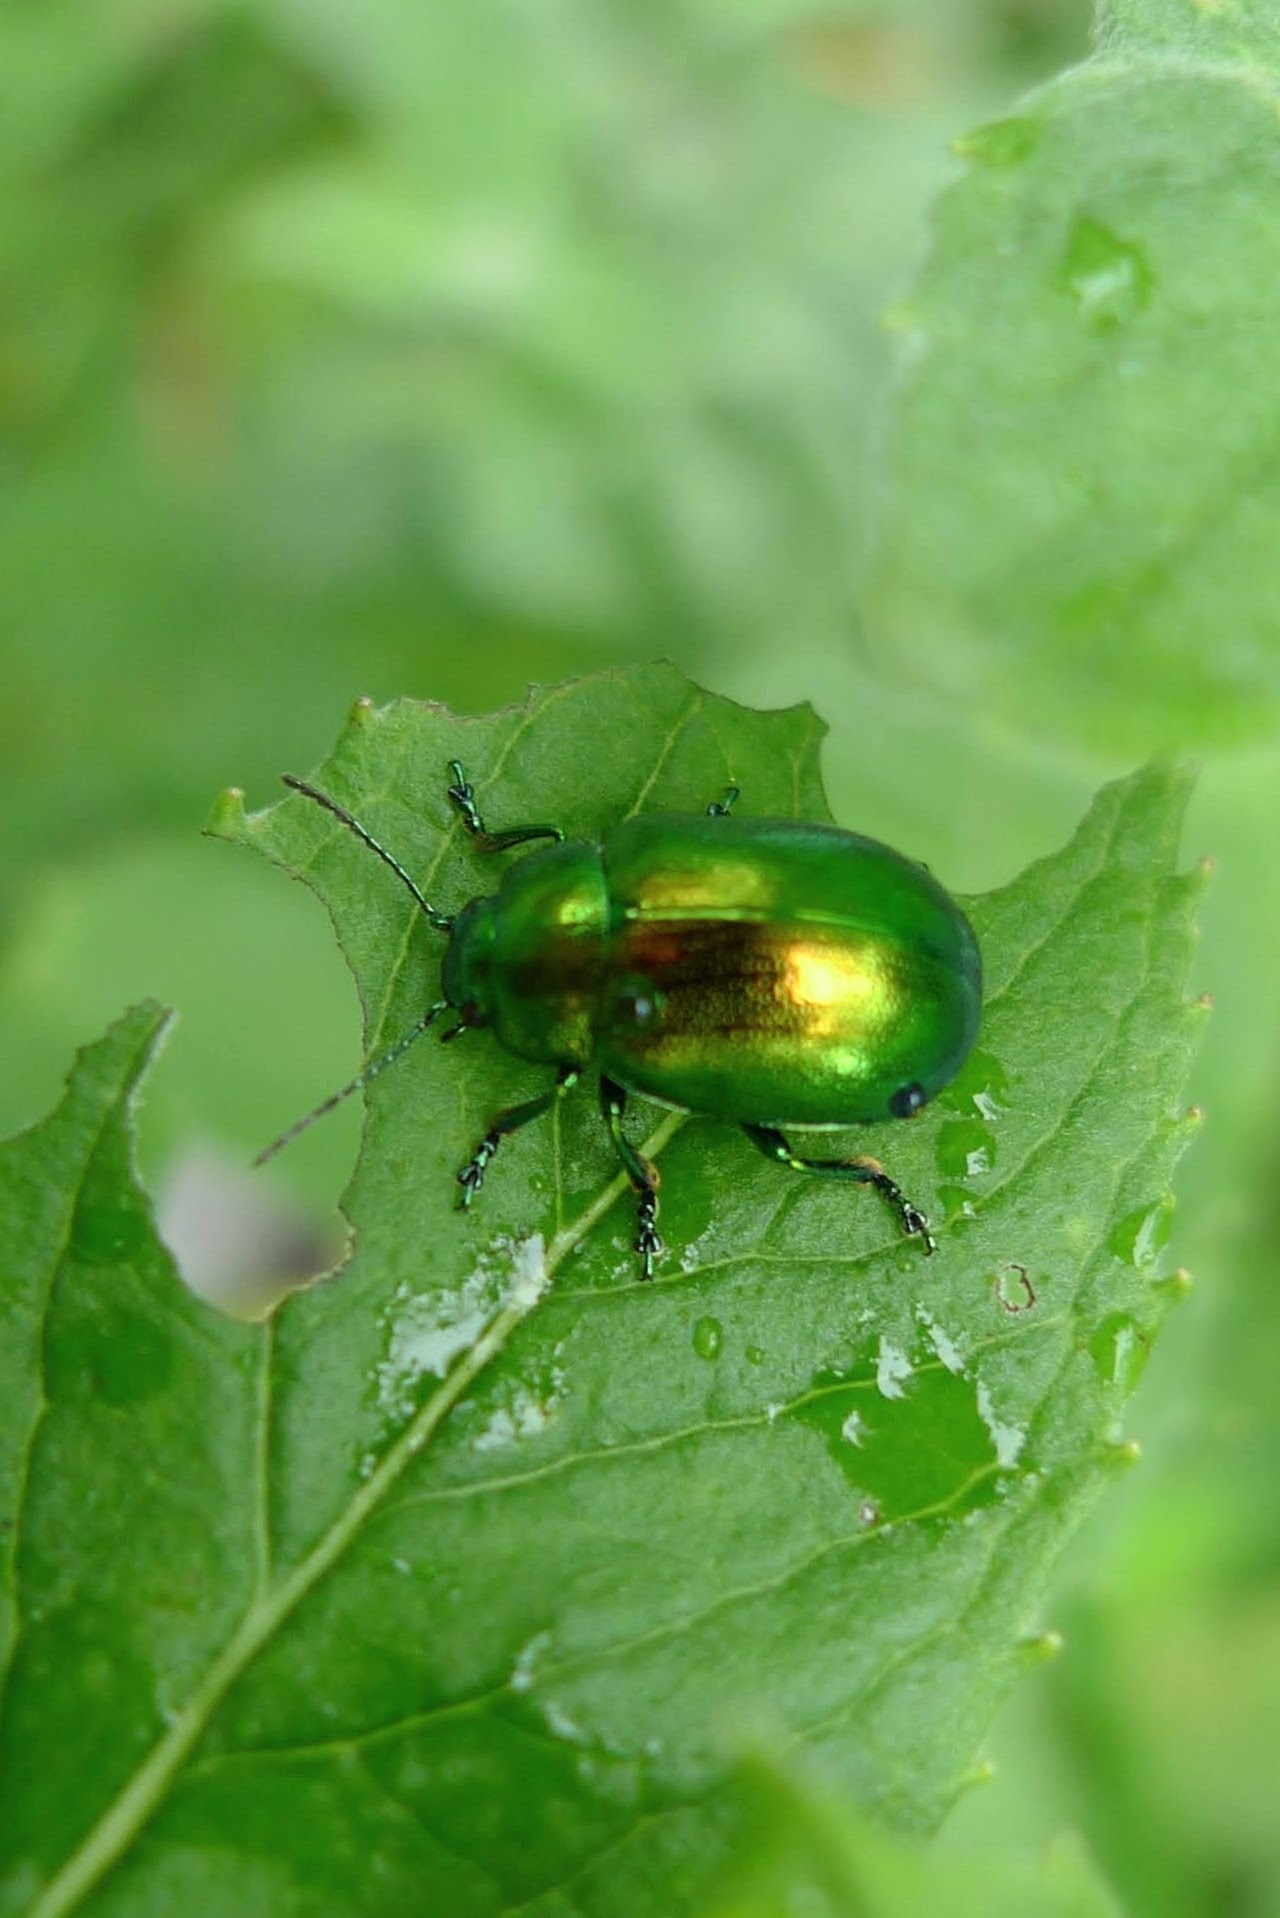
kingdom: Animalia
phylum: Arthropoda
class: Insecta
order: Coleoptera
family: Chrysomelidae
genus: Chrysolina
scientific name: Chrysolina herbacea
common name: Mint leaf beatle
